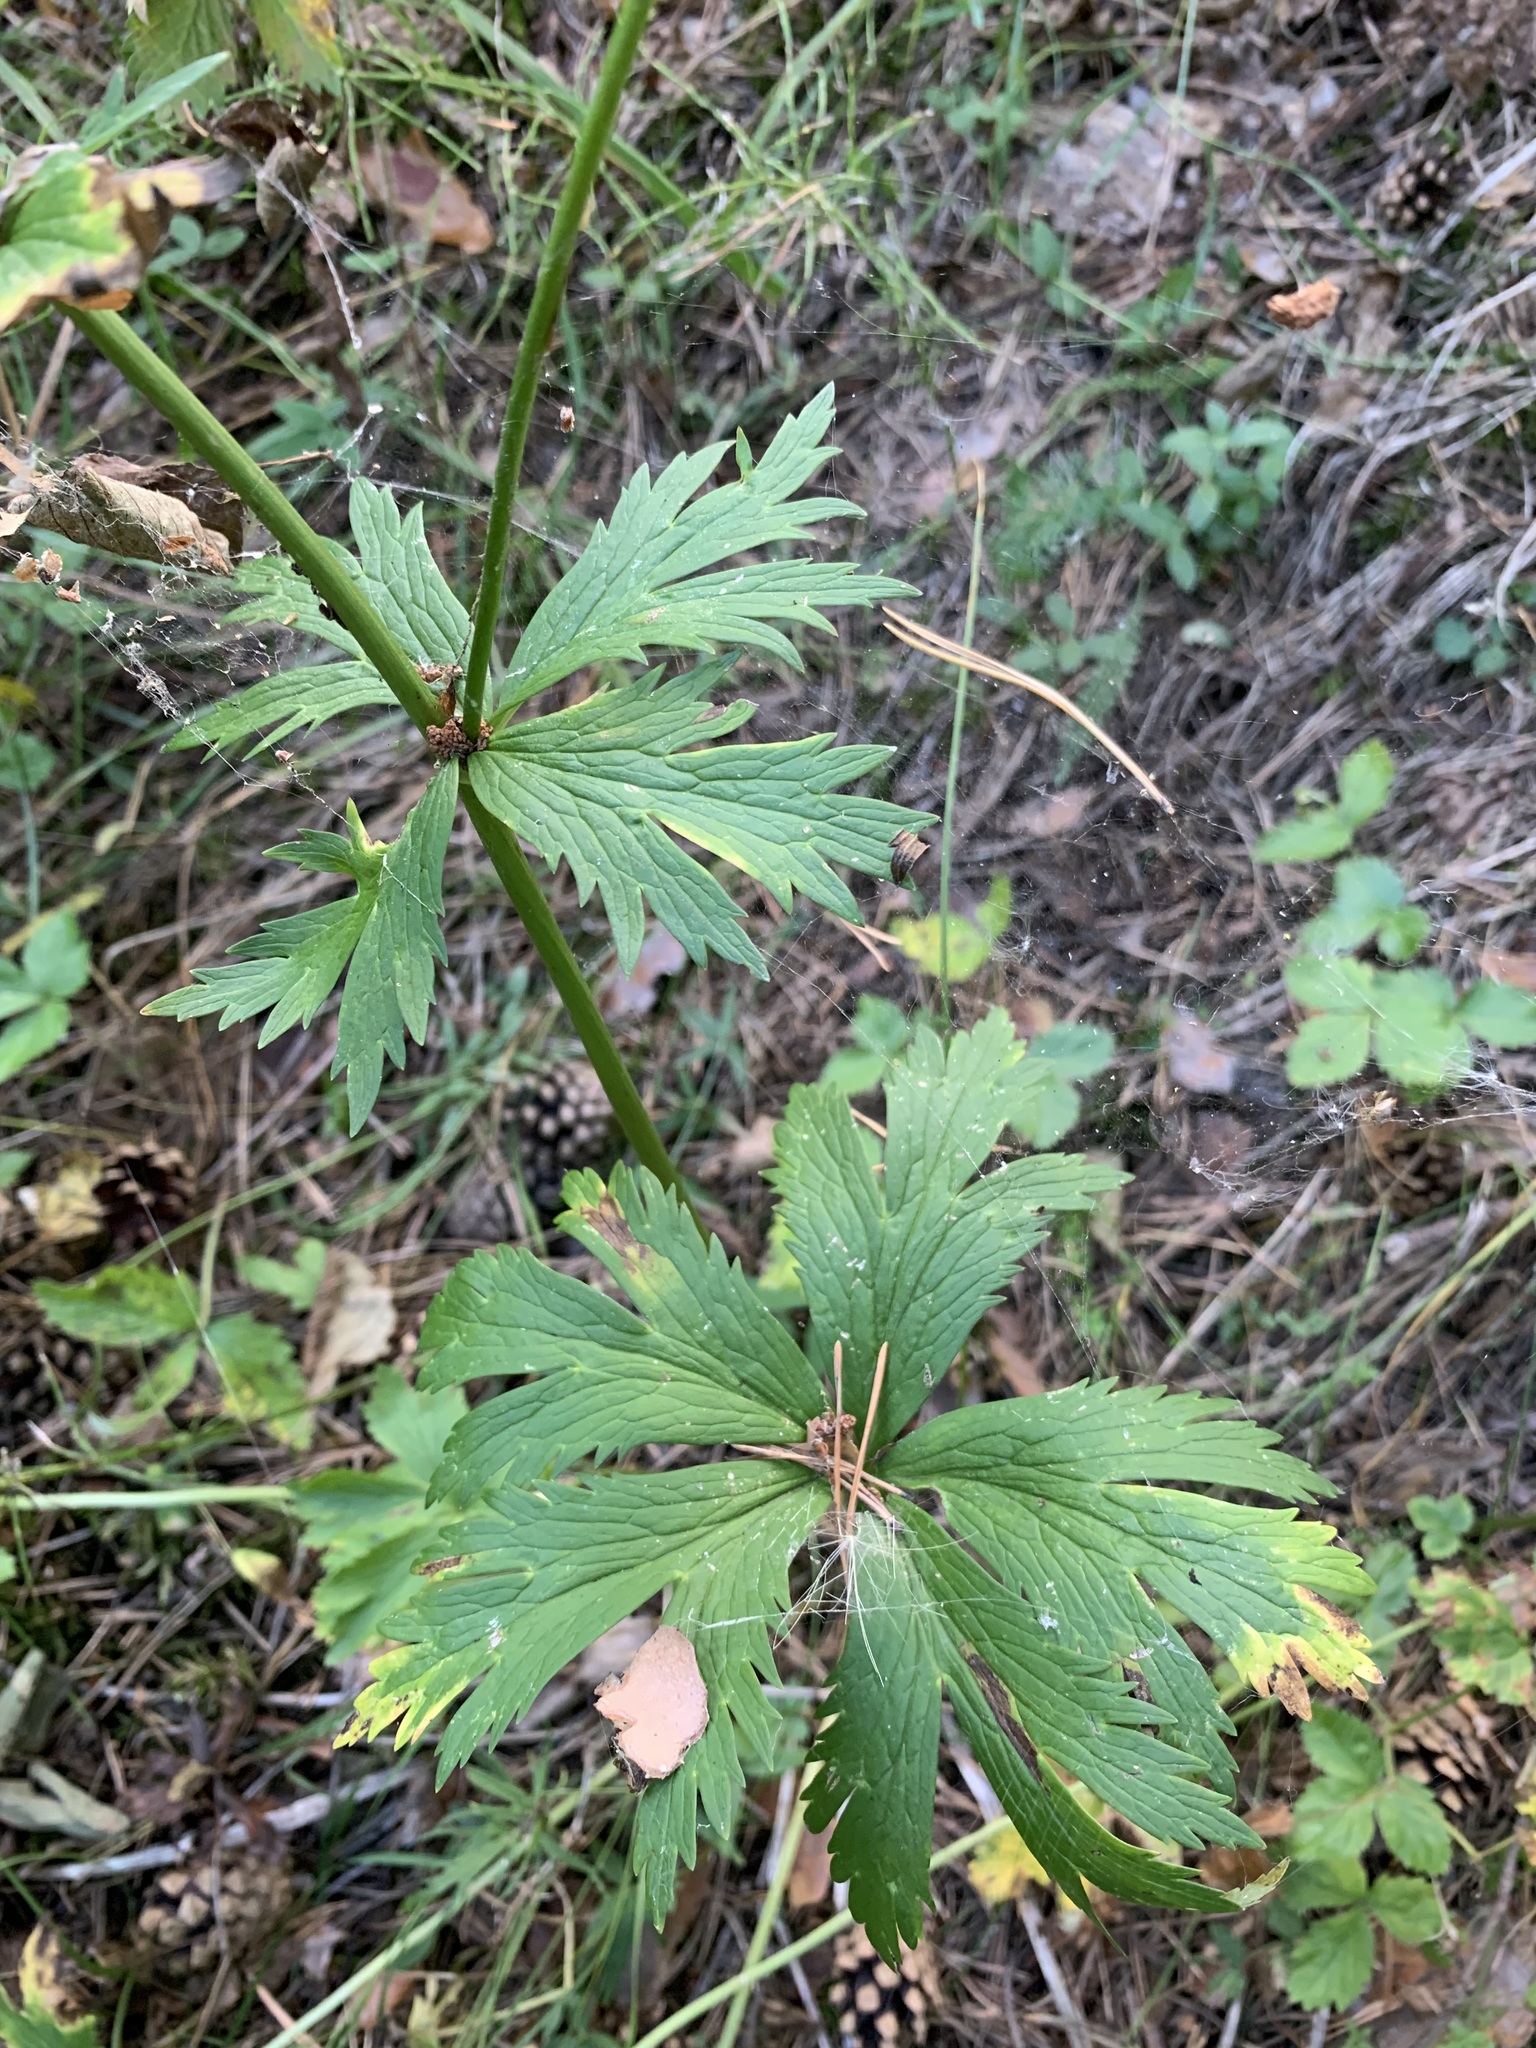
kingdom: Plantae
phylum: Tracheophyta
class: Magnoliopsida
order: Ranunculales
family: Ranunculaceae
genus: Trollius
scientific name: Trollius europaeus
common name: European globeflower
